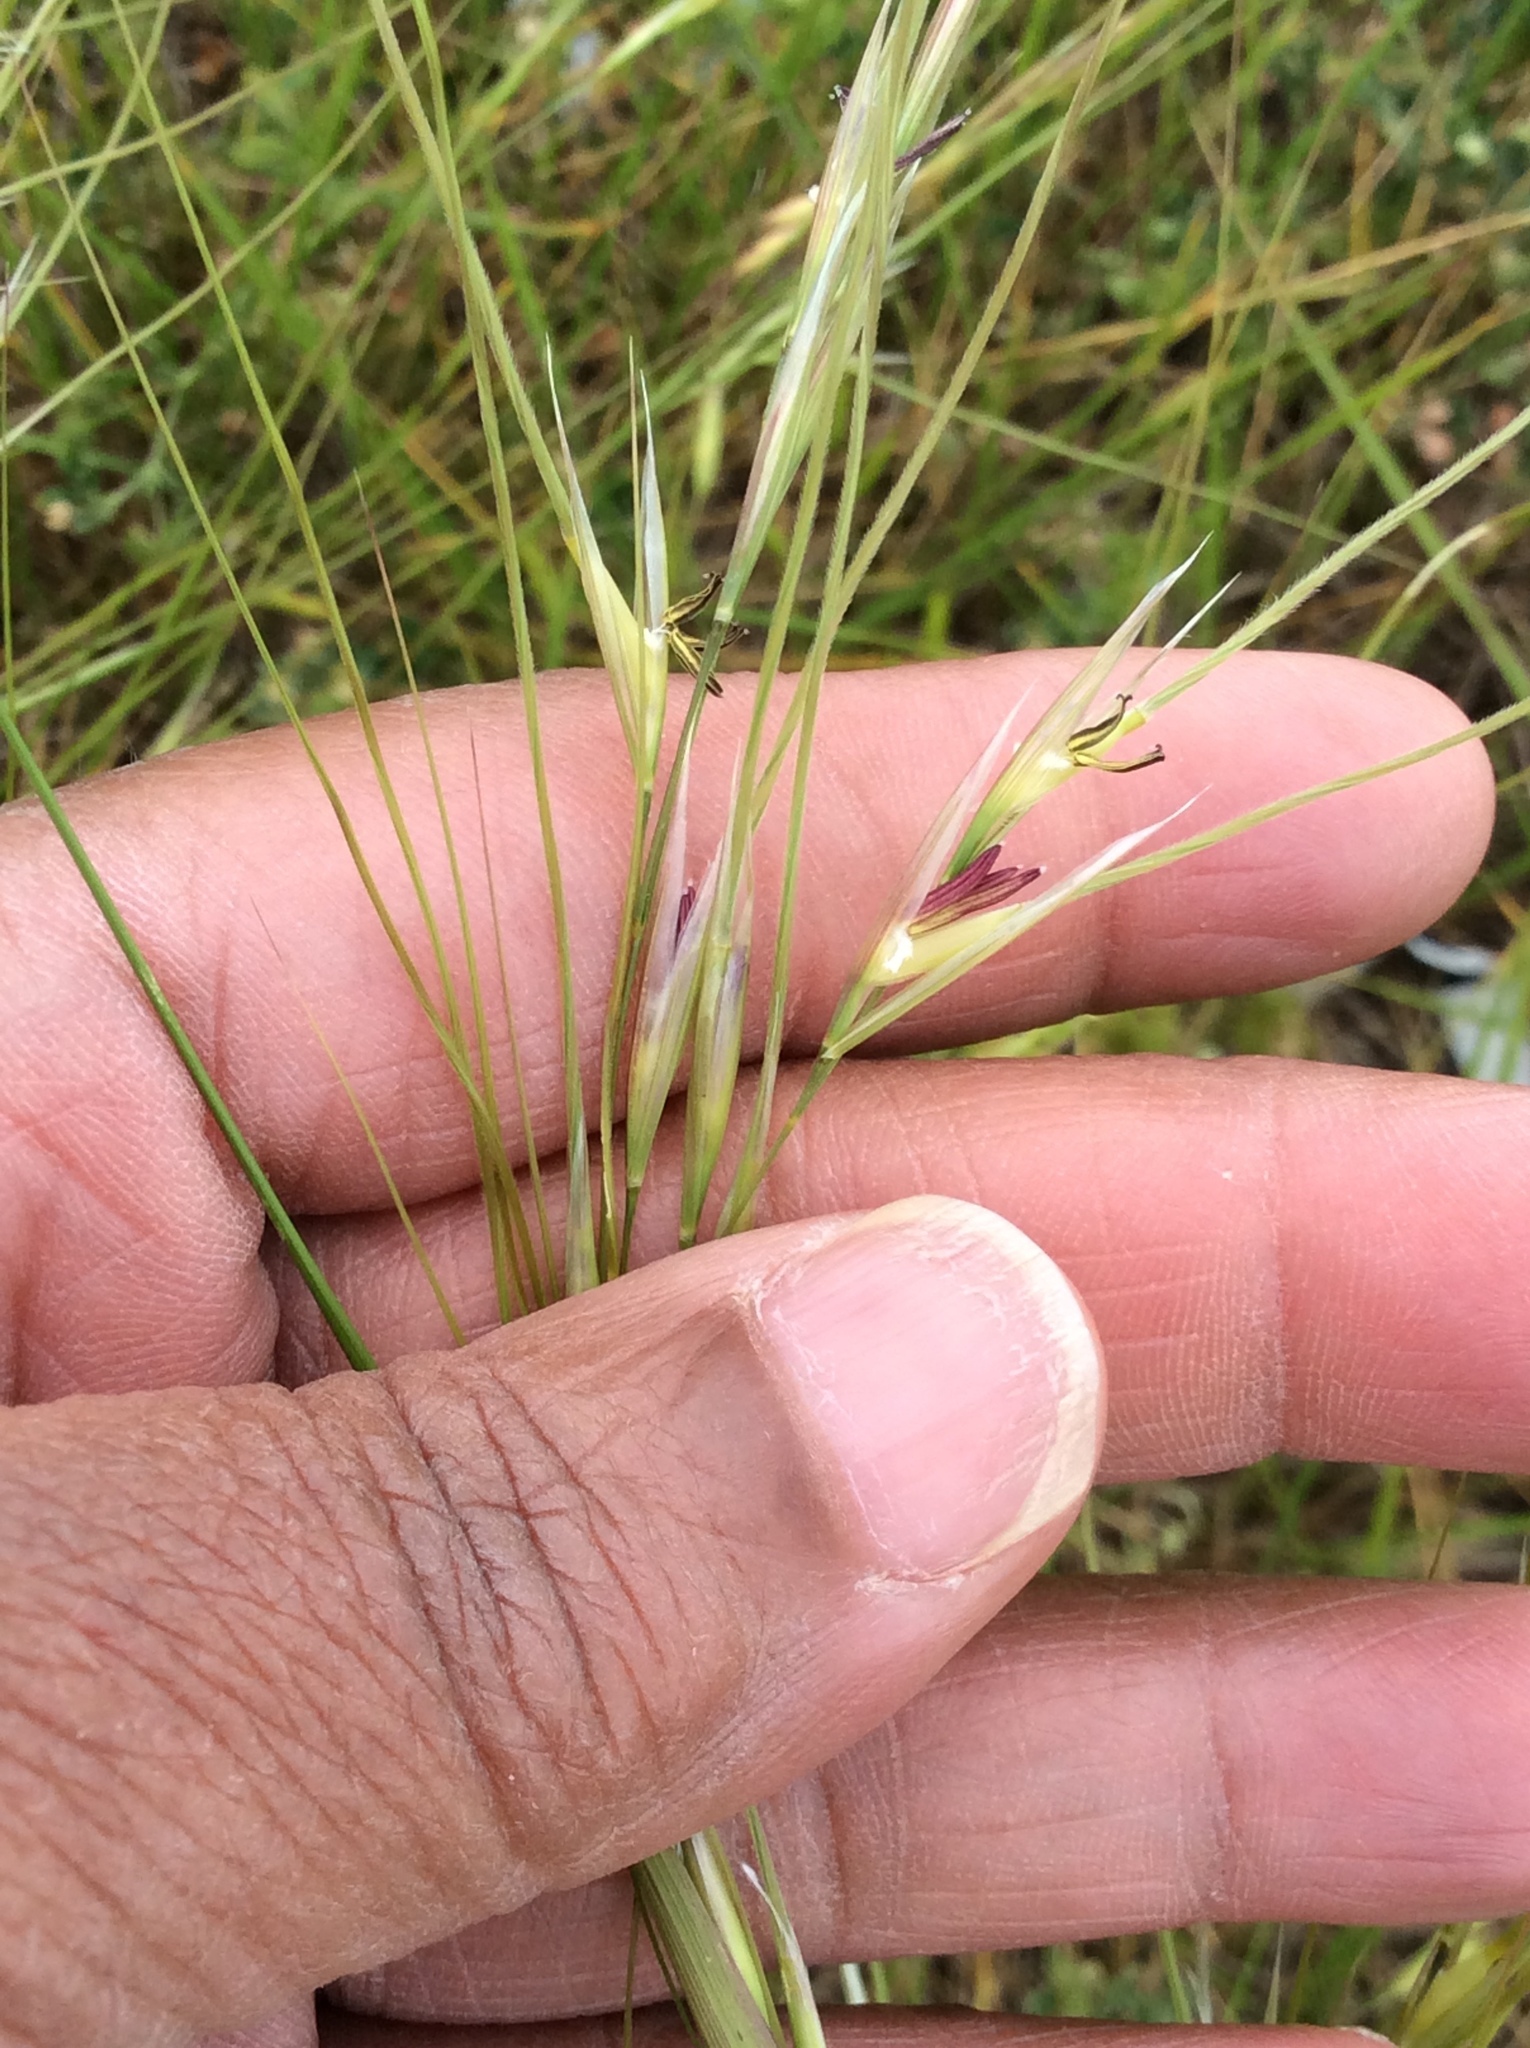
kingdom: Plantae
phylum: Tracheophyta
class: Liliopsida
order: Poales
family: Poaceae
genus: Nassella
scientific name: Nassella leucotricha
